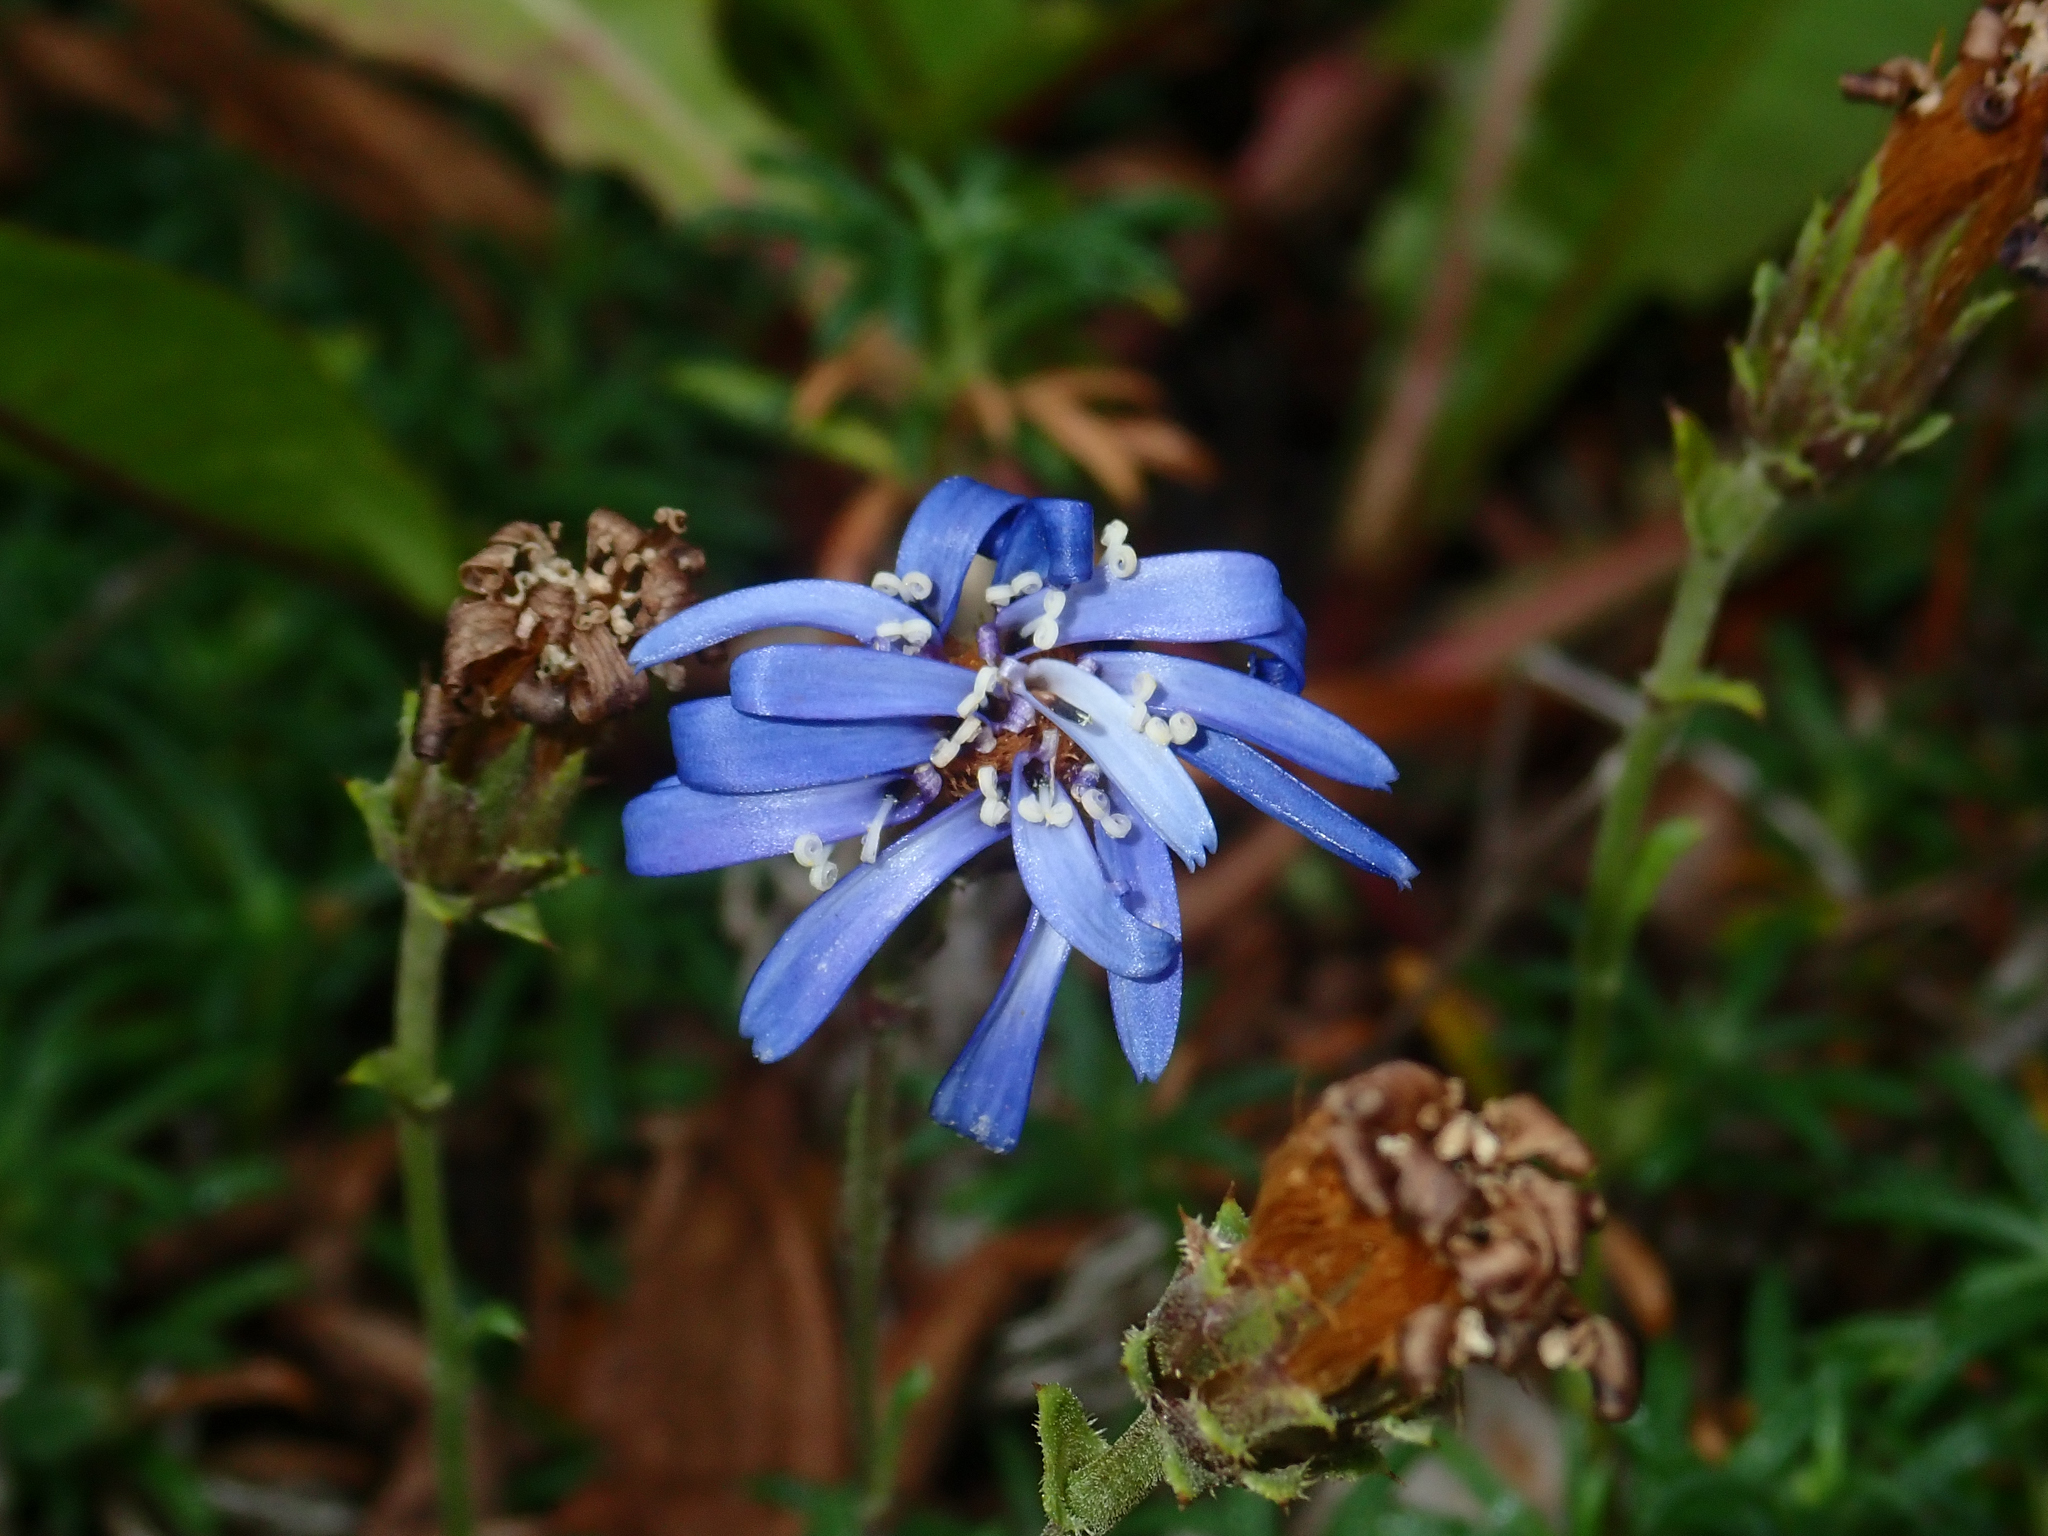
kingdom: Plantae
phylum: Tracheophyta
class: Magnoliopsida
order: Asterales
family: Asteraceae
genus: Perezia
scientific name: Perezia recurvata
